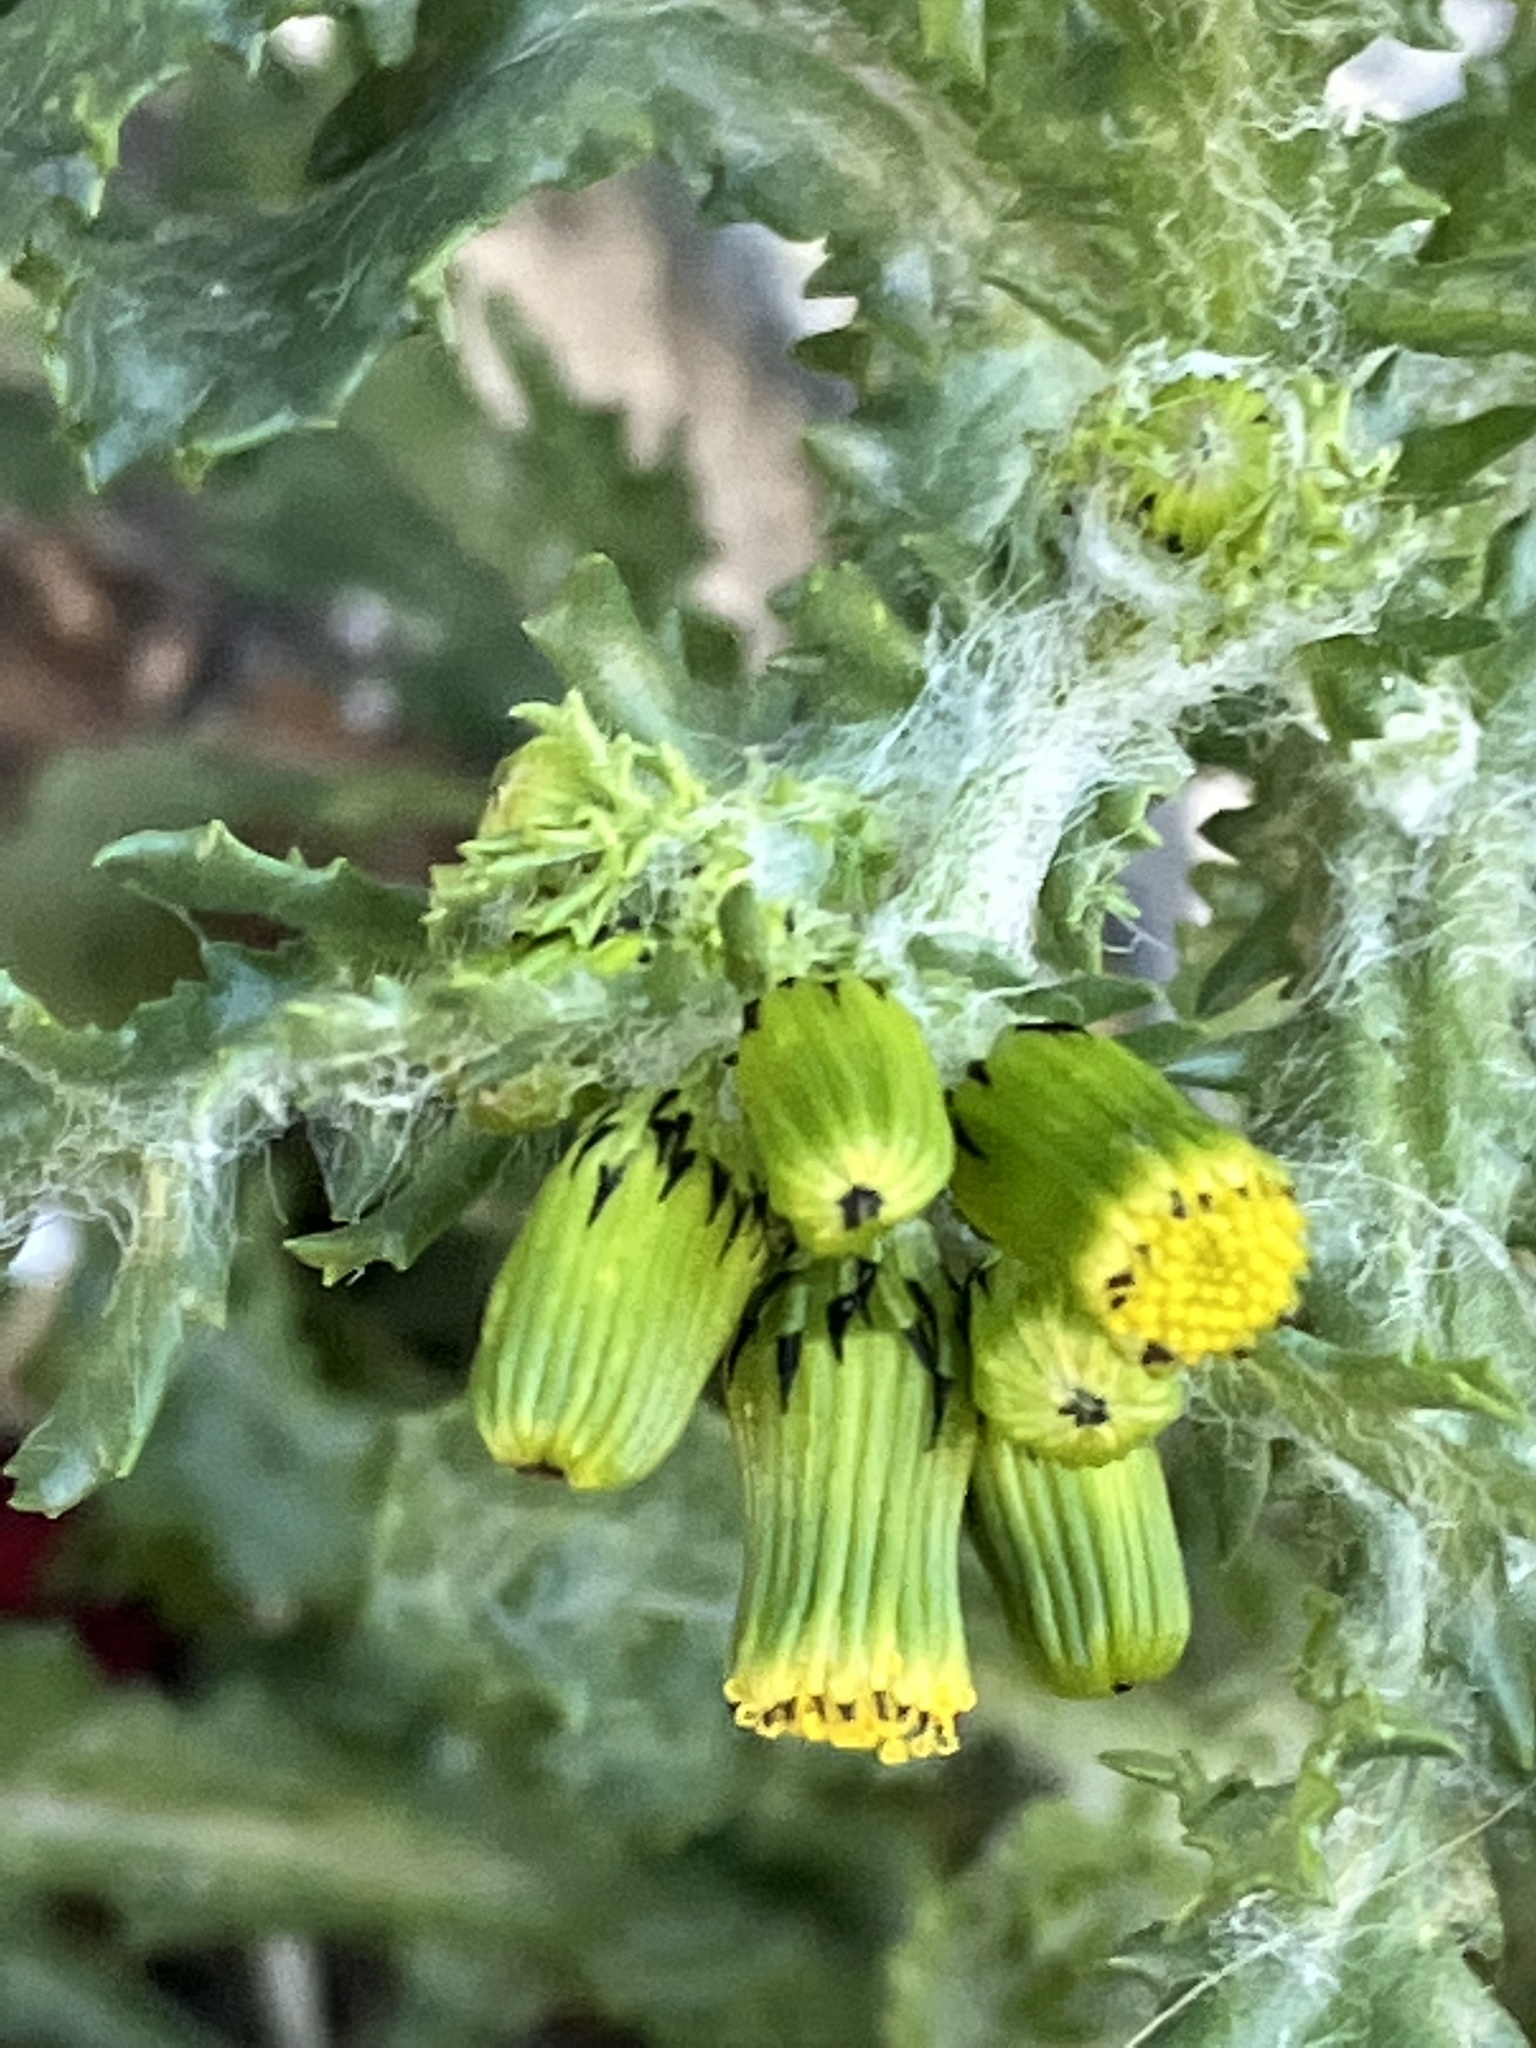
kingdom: Plantae
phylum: Tracheophyta
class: Magnoliopsida
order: Asterales
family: Asteraceae
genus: Senecio
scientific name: Senecio vulgaris
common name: Old-man-in-the-spring
